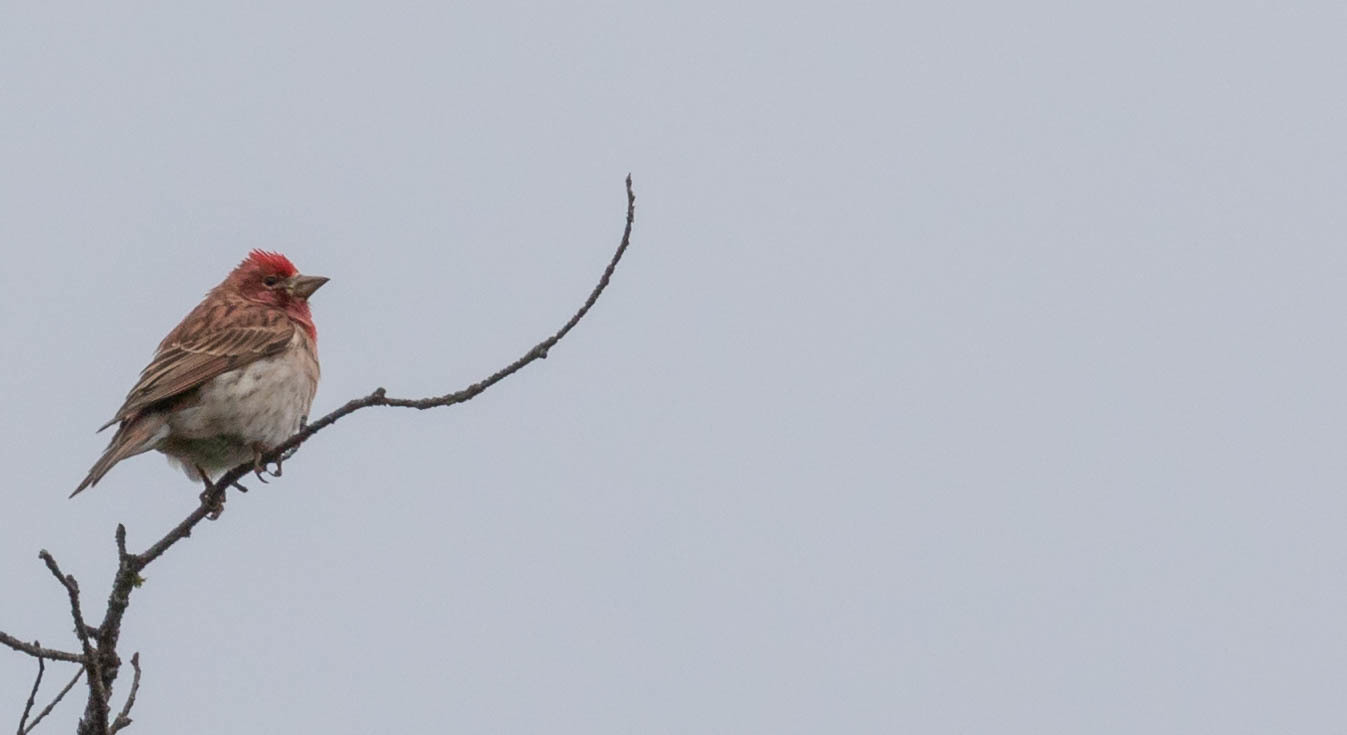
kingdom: Animalia
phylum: Chordata
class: Aves
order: Passeriformes
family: Fringillidae
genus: Haemorhous
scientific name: Haemorhous cassinii
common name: Cassin's finch
